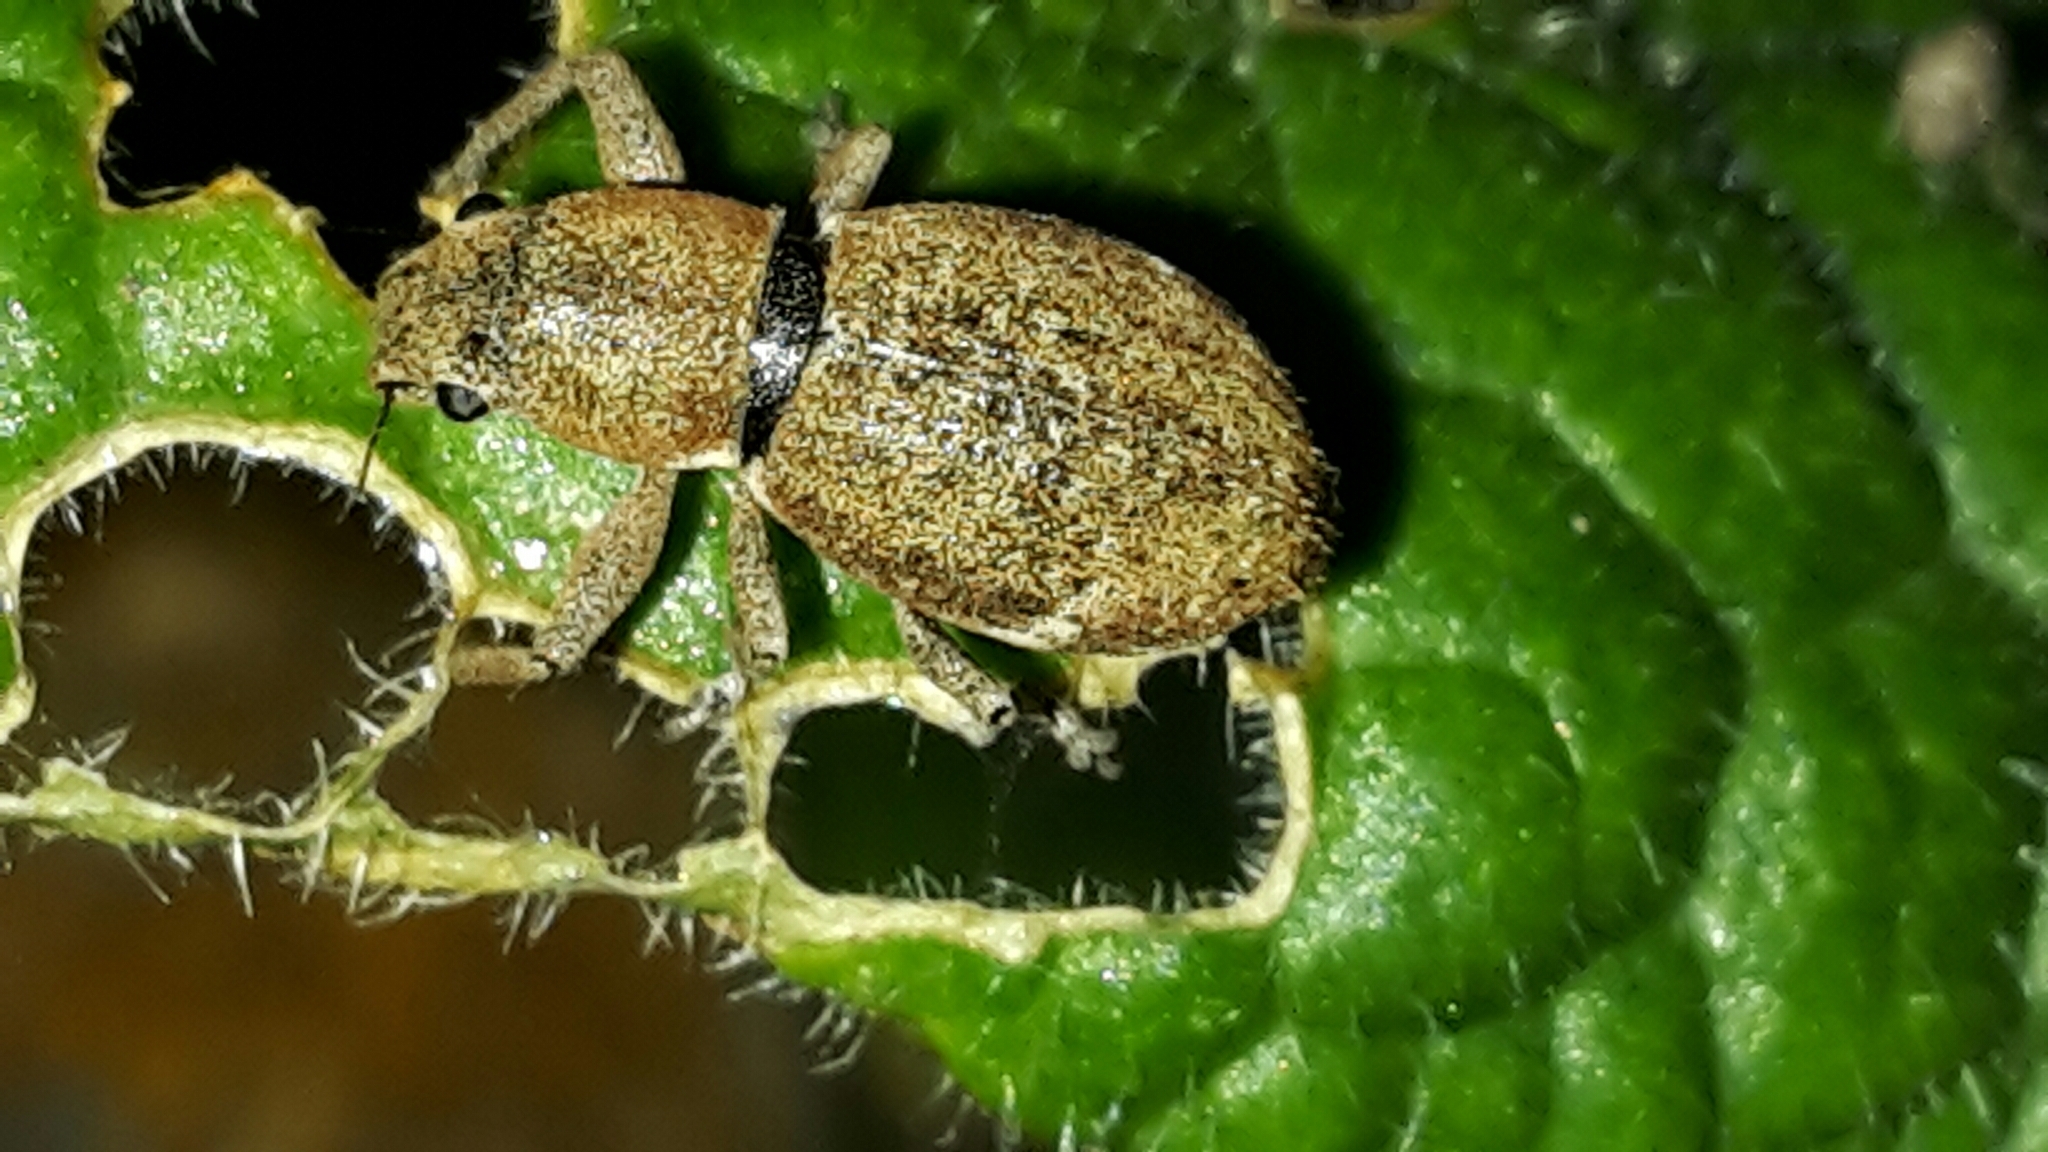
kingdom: Animalia
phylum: Arthropoda
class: Insecta
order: Coleoptera
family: Curculionidae
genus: Naupactus
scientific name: Naupactus cervinus
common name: Fuller rose beetle
